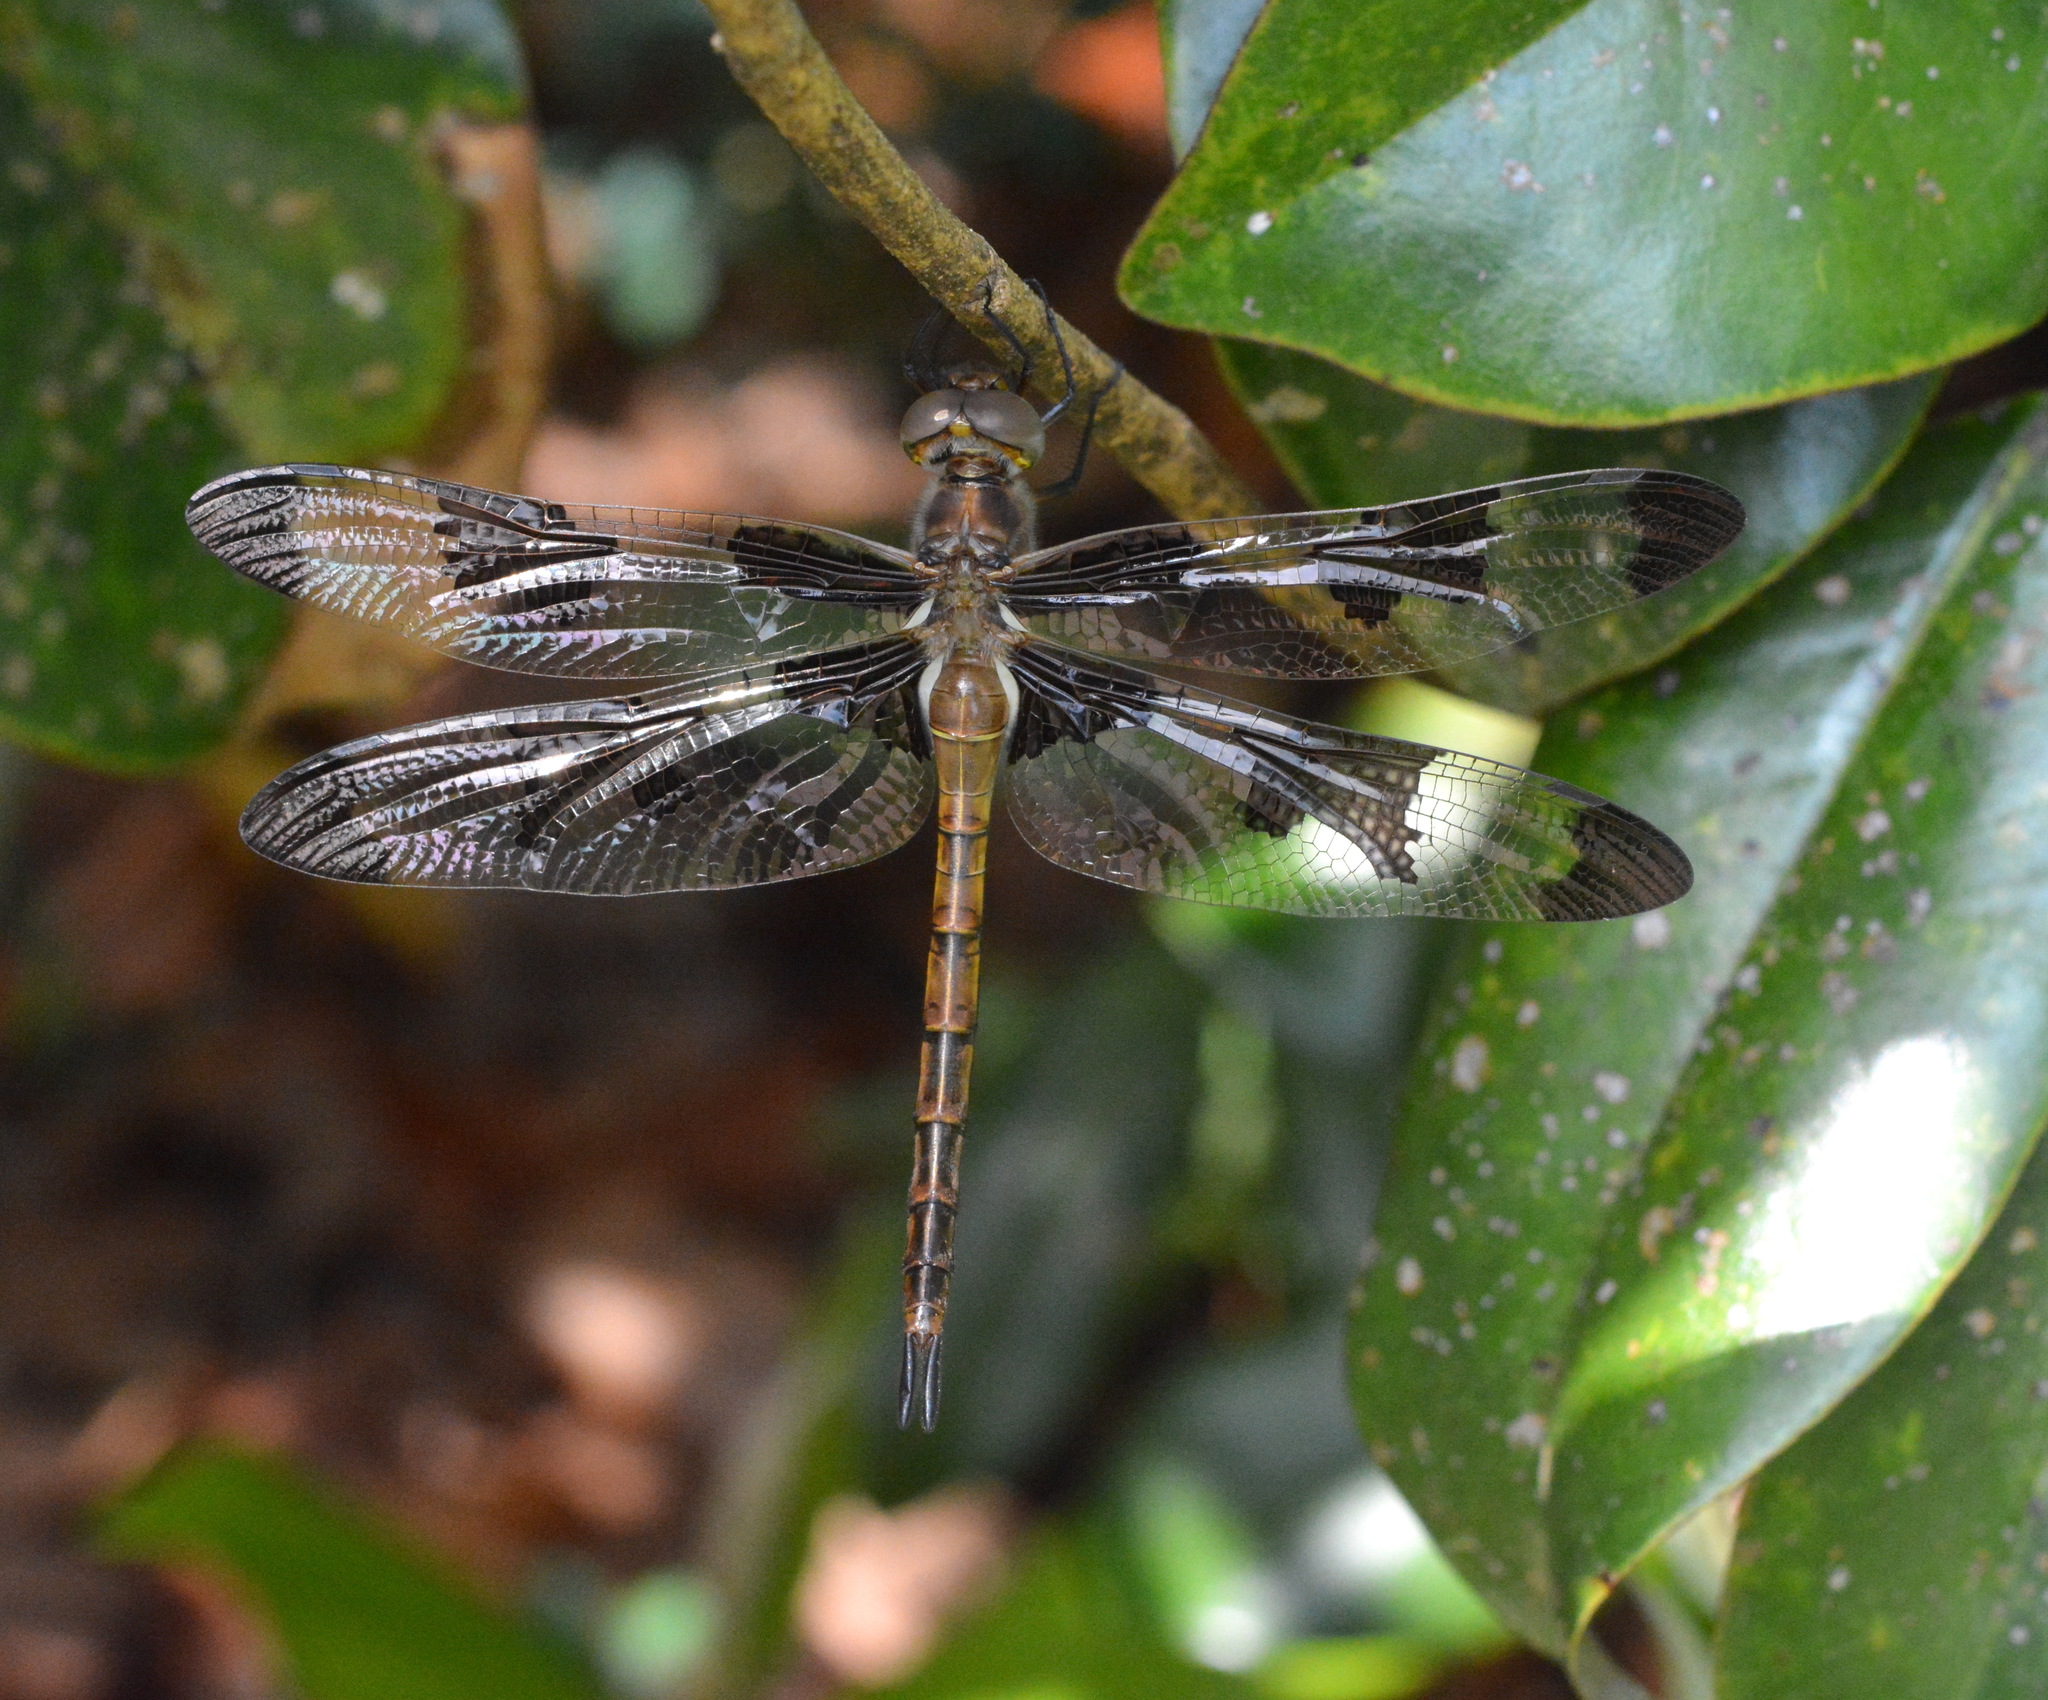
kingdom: Animalia
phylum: Arthropoda
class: Insecta
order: Odonata
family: Corduliidae
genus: Epitheca
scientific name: Epitheca princeps
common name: Prince baskettail
